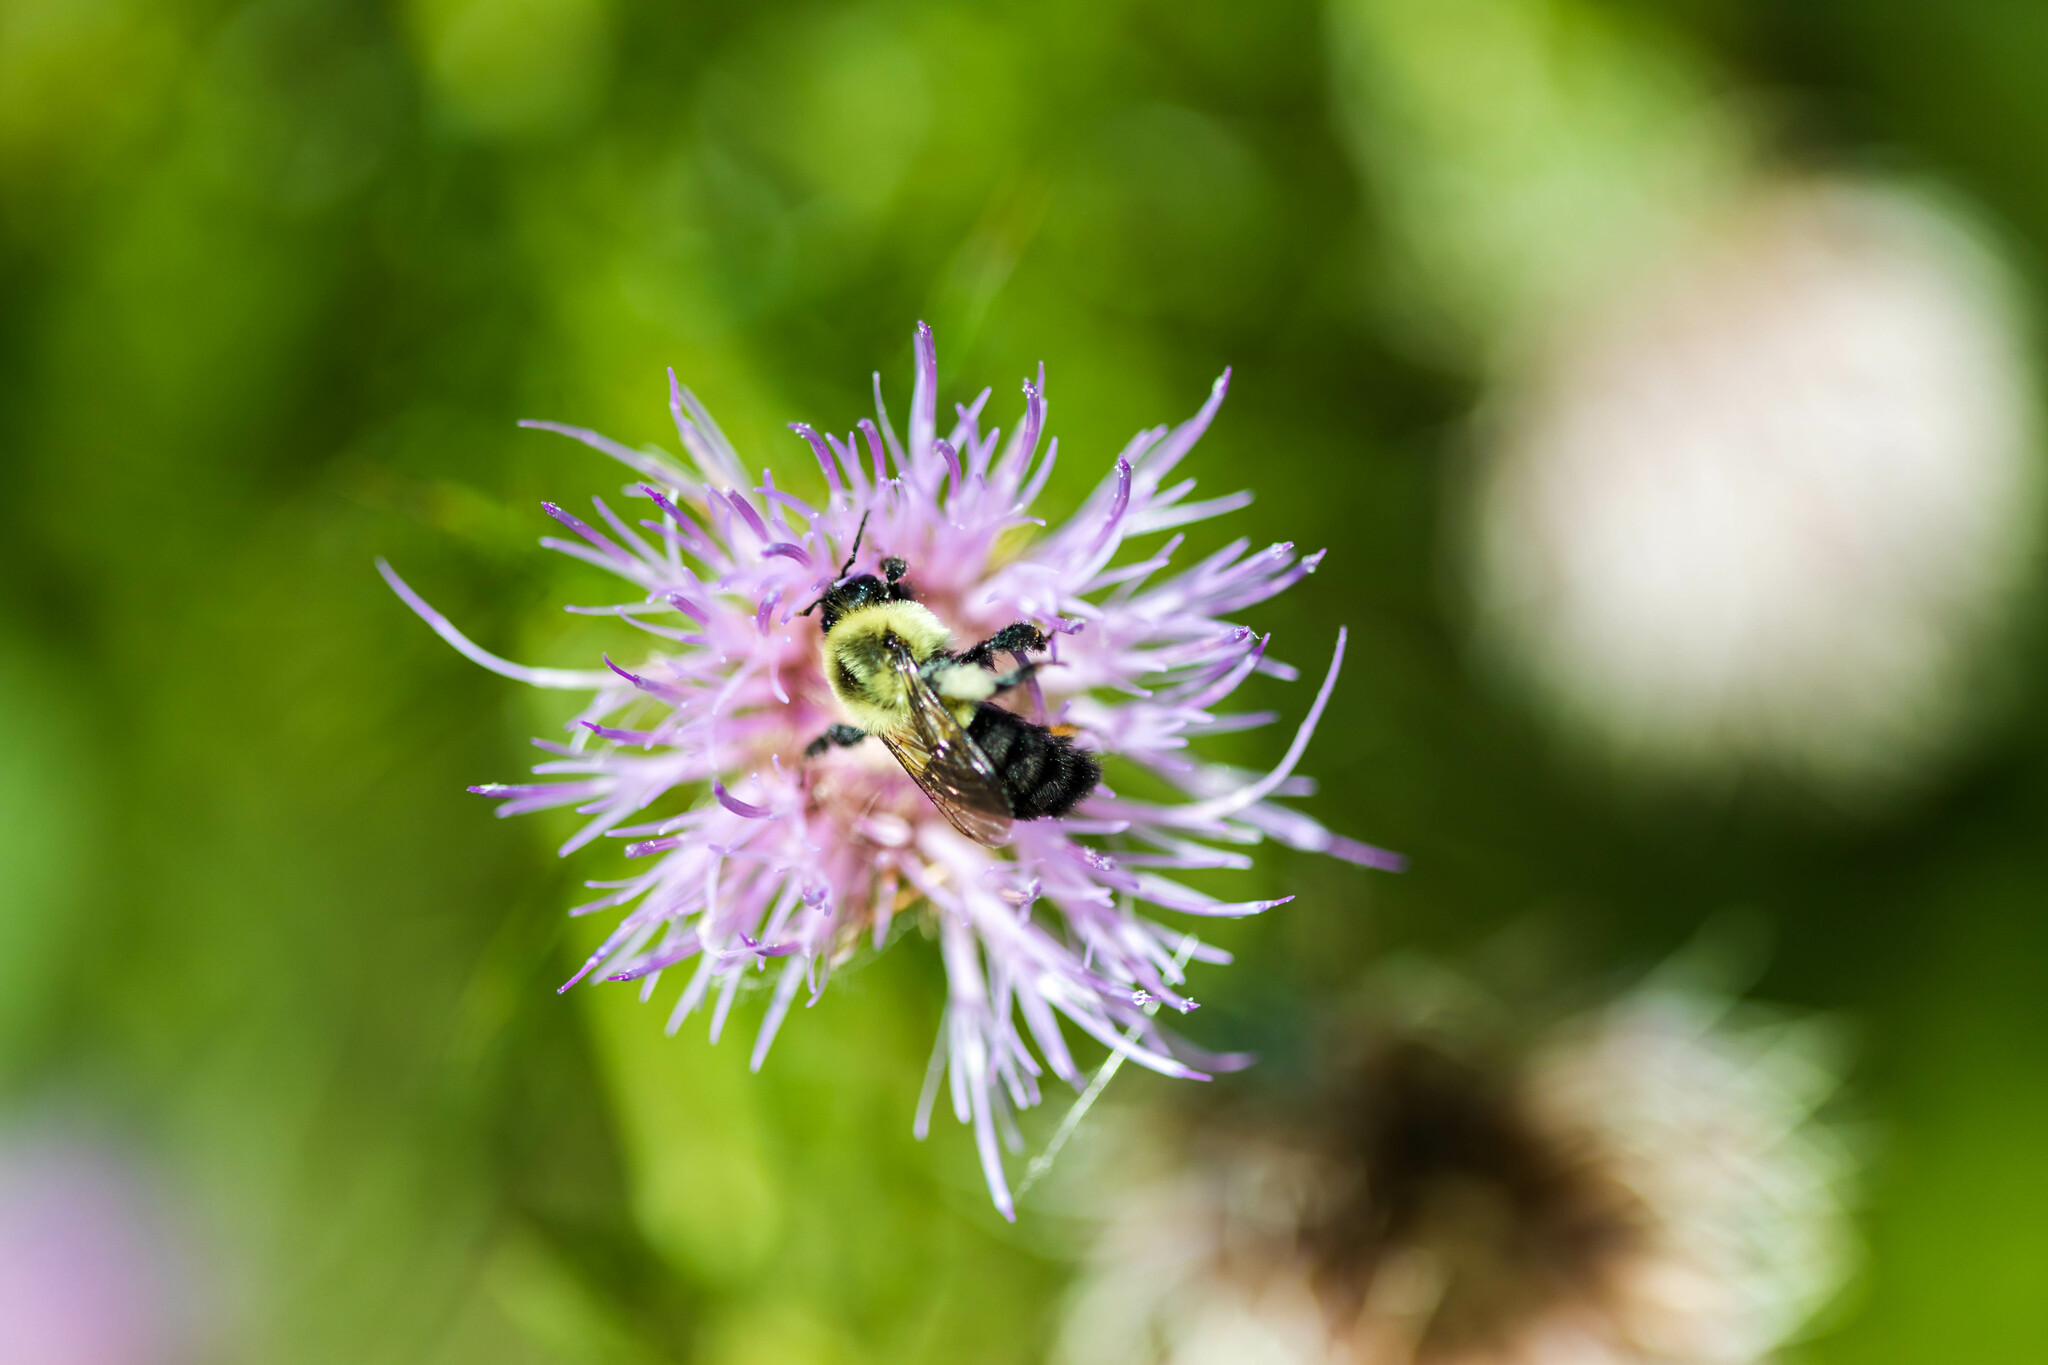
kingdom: Animalia
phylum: Arthropoda
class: Insecta
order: Hymenoptera
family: Apidae
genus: Bombus
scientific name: Bombus impatiens
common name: Common eastern bumble bee
